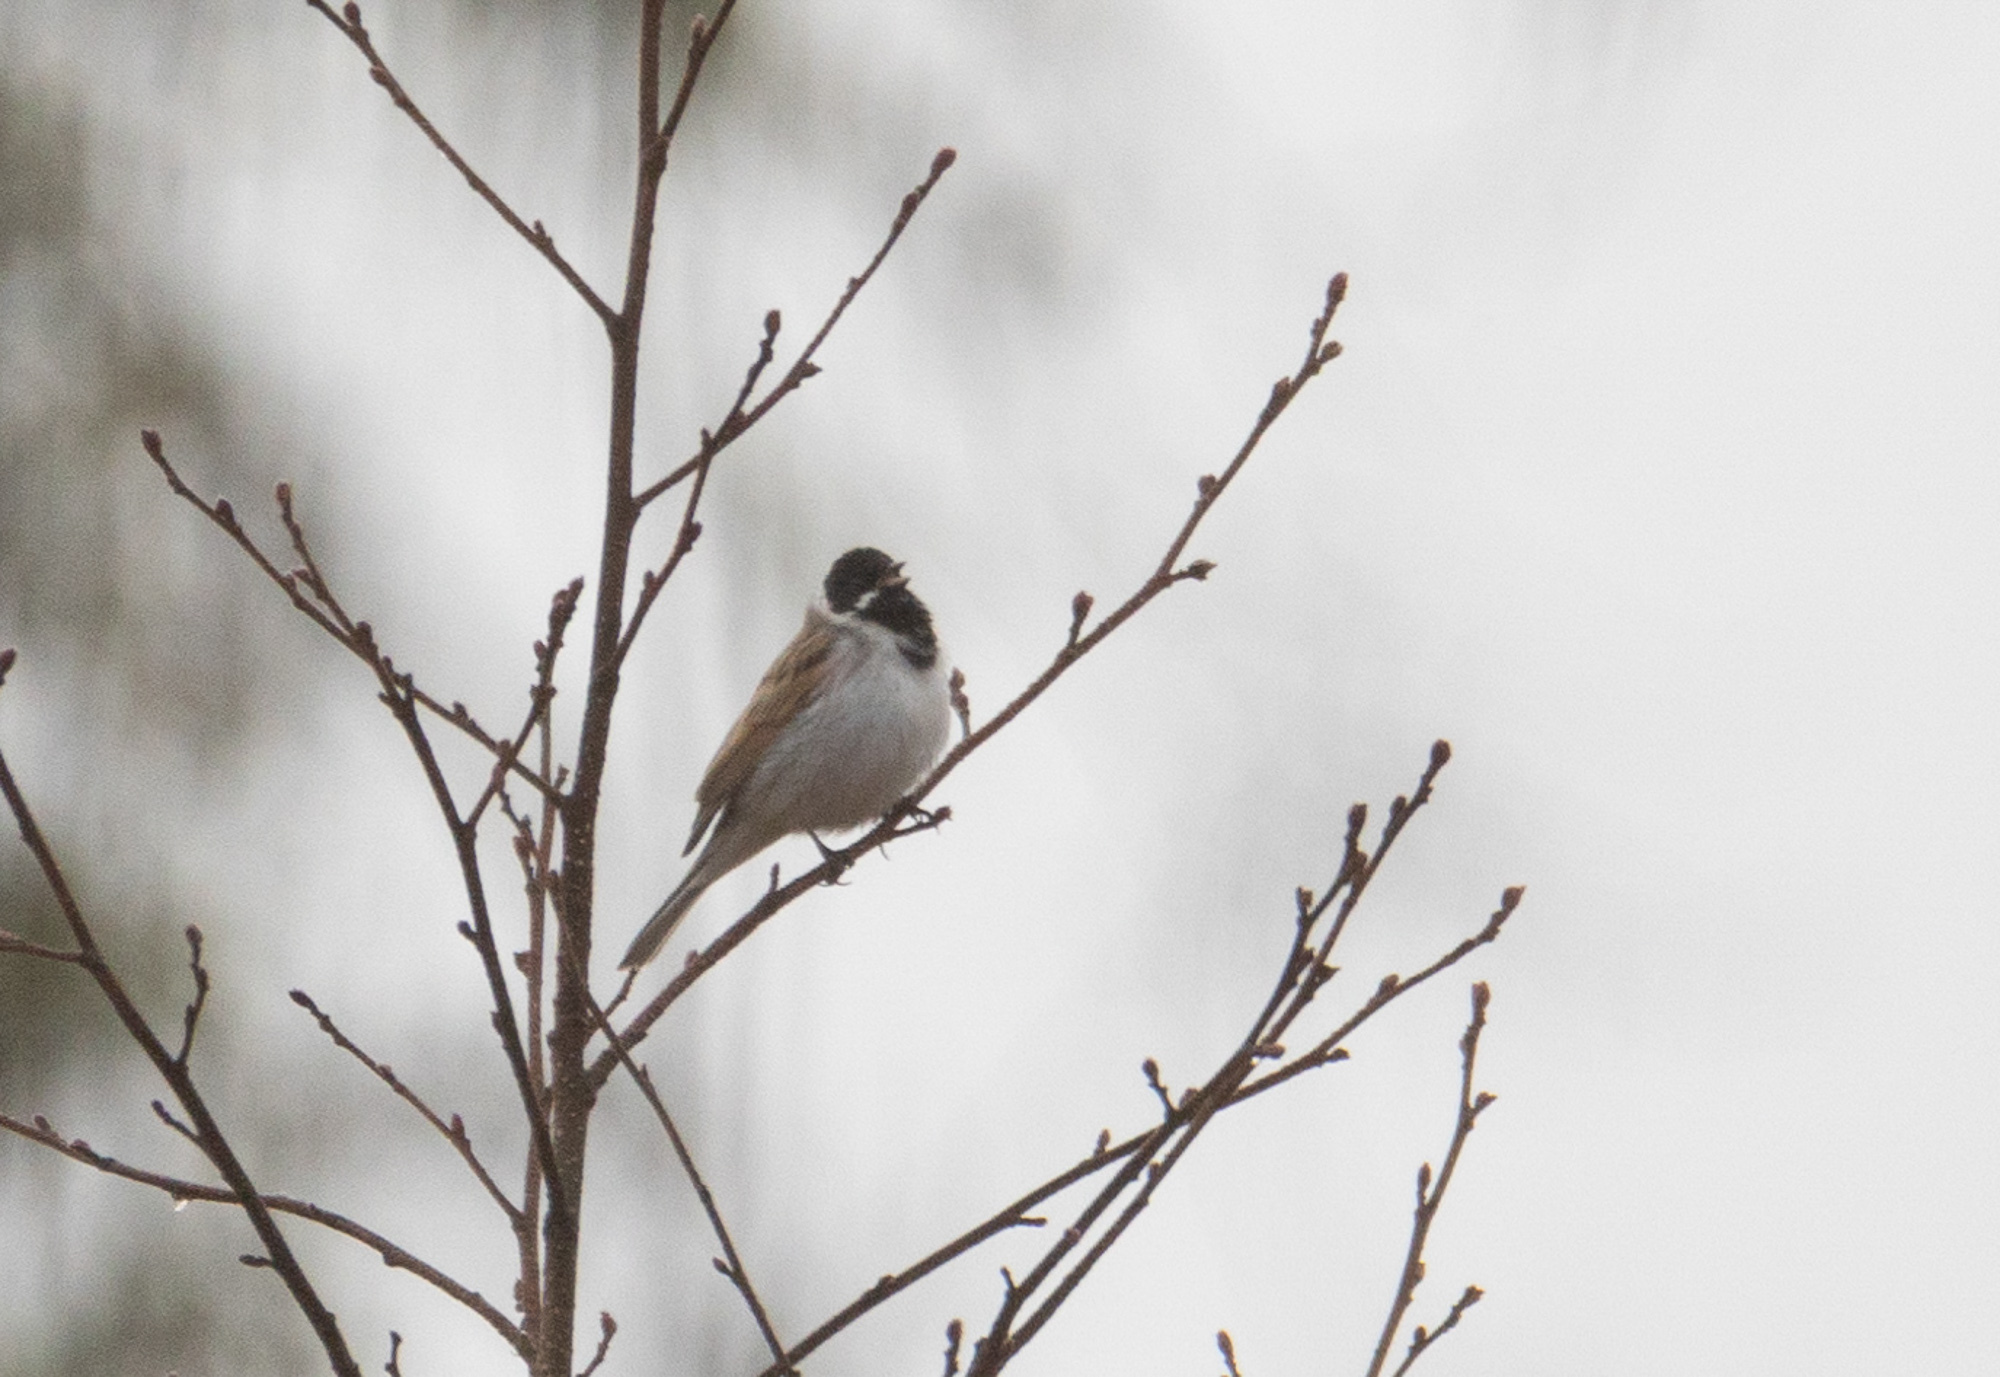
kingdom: Animalia
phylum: Chordata
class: Aves
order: Passeriformes
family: Emberizidae
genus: Emberiza
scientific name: Emberiza schoeniclus
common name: Reed bunting
